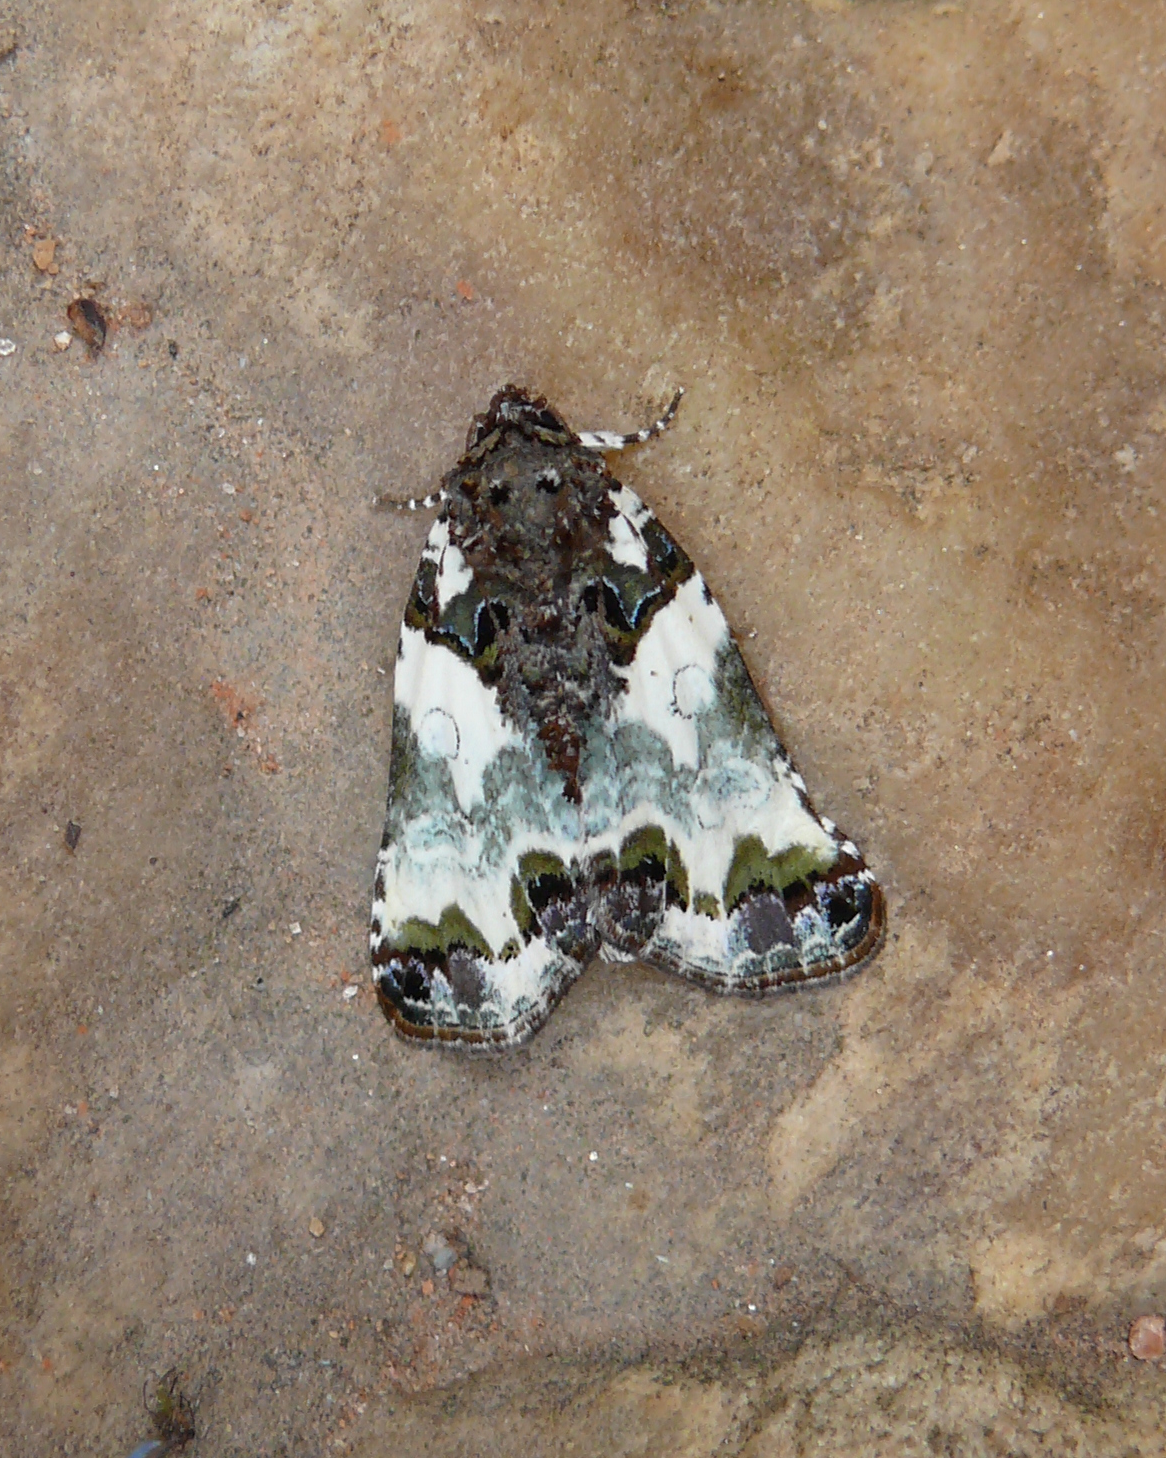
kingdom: Animalia
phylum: Arthropoda
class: Insecta
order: Lepidoptera
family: Noctuidae
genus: Cerma
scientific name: Cerma cerintha
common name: Tufted bird-dropping moth
